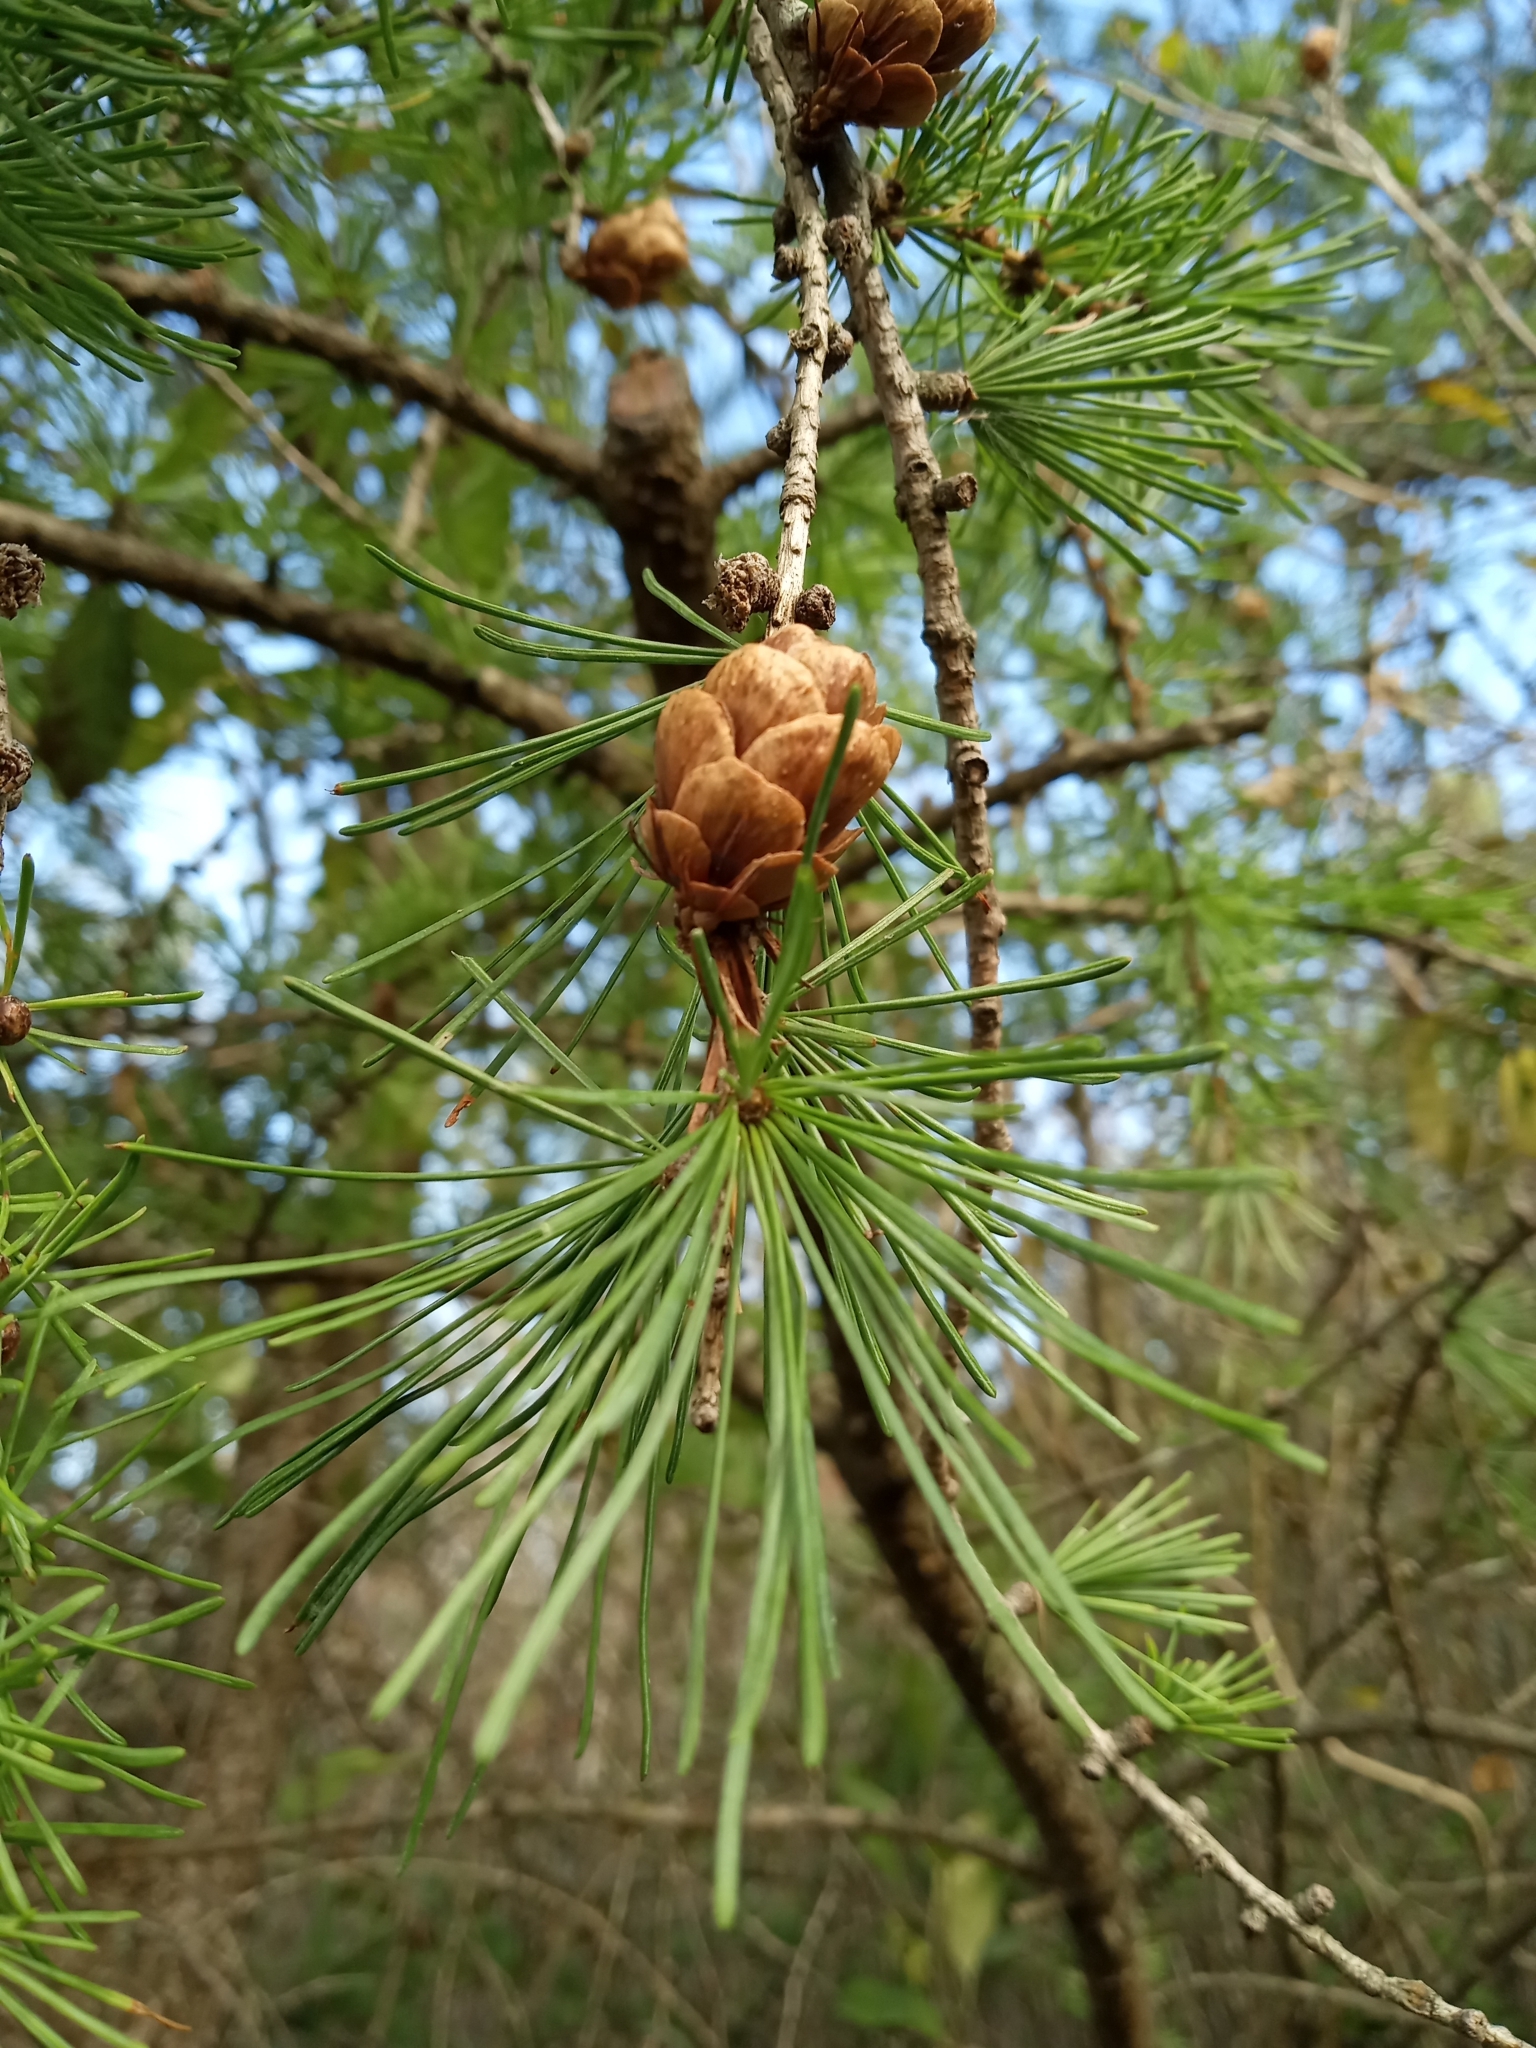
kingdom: Plantae
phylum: Tracheophyta
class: Pinopsida
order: Pinales
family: Pinaceae
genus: Larix
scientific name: Larix laricina
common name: American larch
